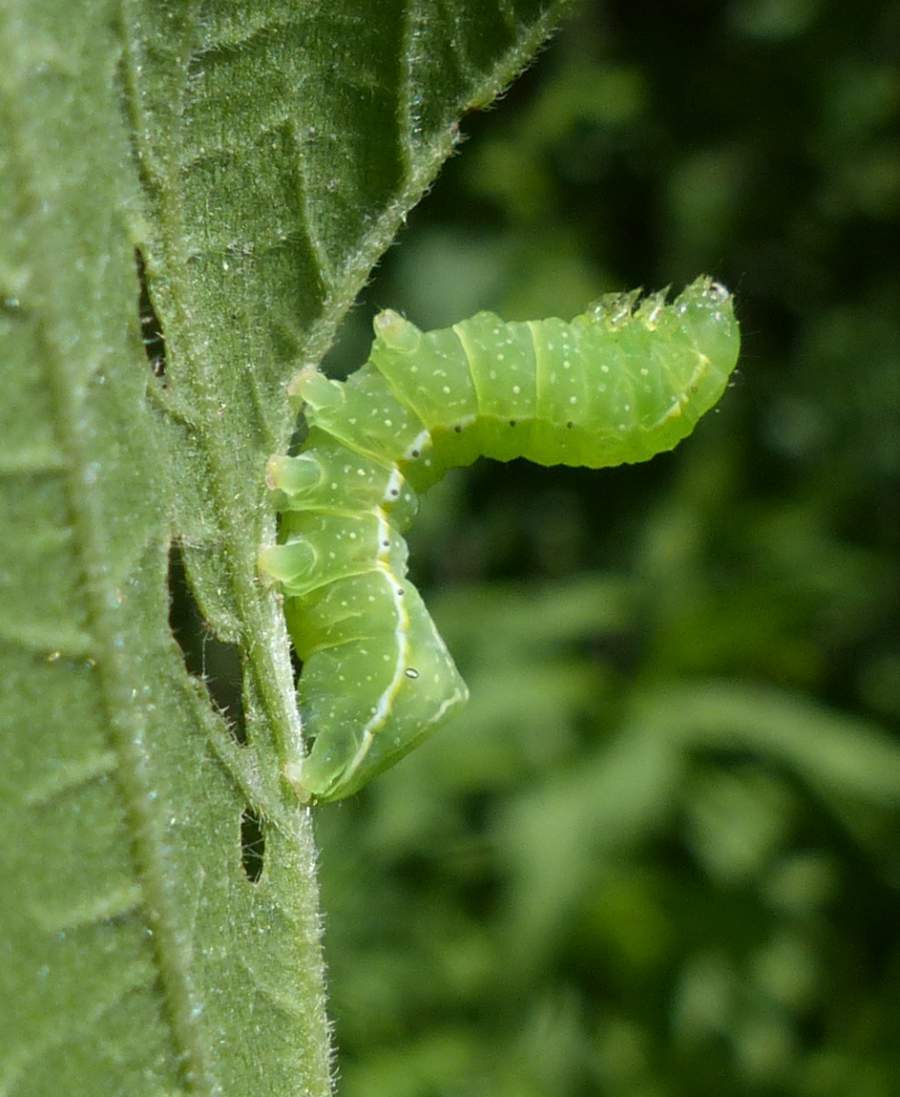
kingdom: Animalia
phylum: Arthropoda
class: Insecta
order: Lepidoptera
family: Noctuidae
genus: Amphipyra
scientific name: Amphipyra pyramidoides
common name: American copper underwing
